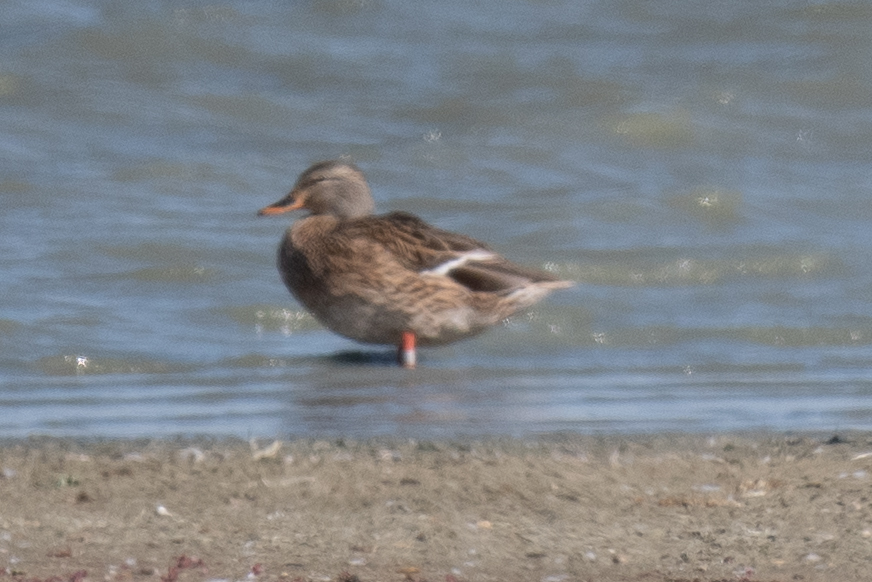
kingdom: Animalia
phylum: Chordata
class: Aves
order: Anseriformes
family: Anatidae
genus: Anas
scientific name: Anas platyrhynchos
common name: Mallard
